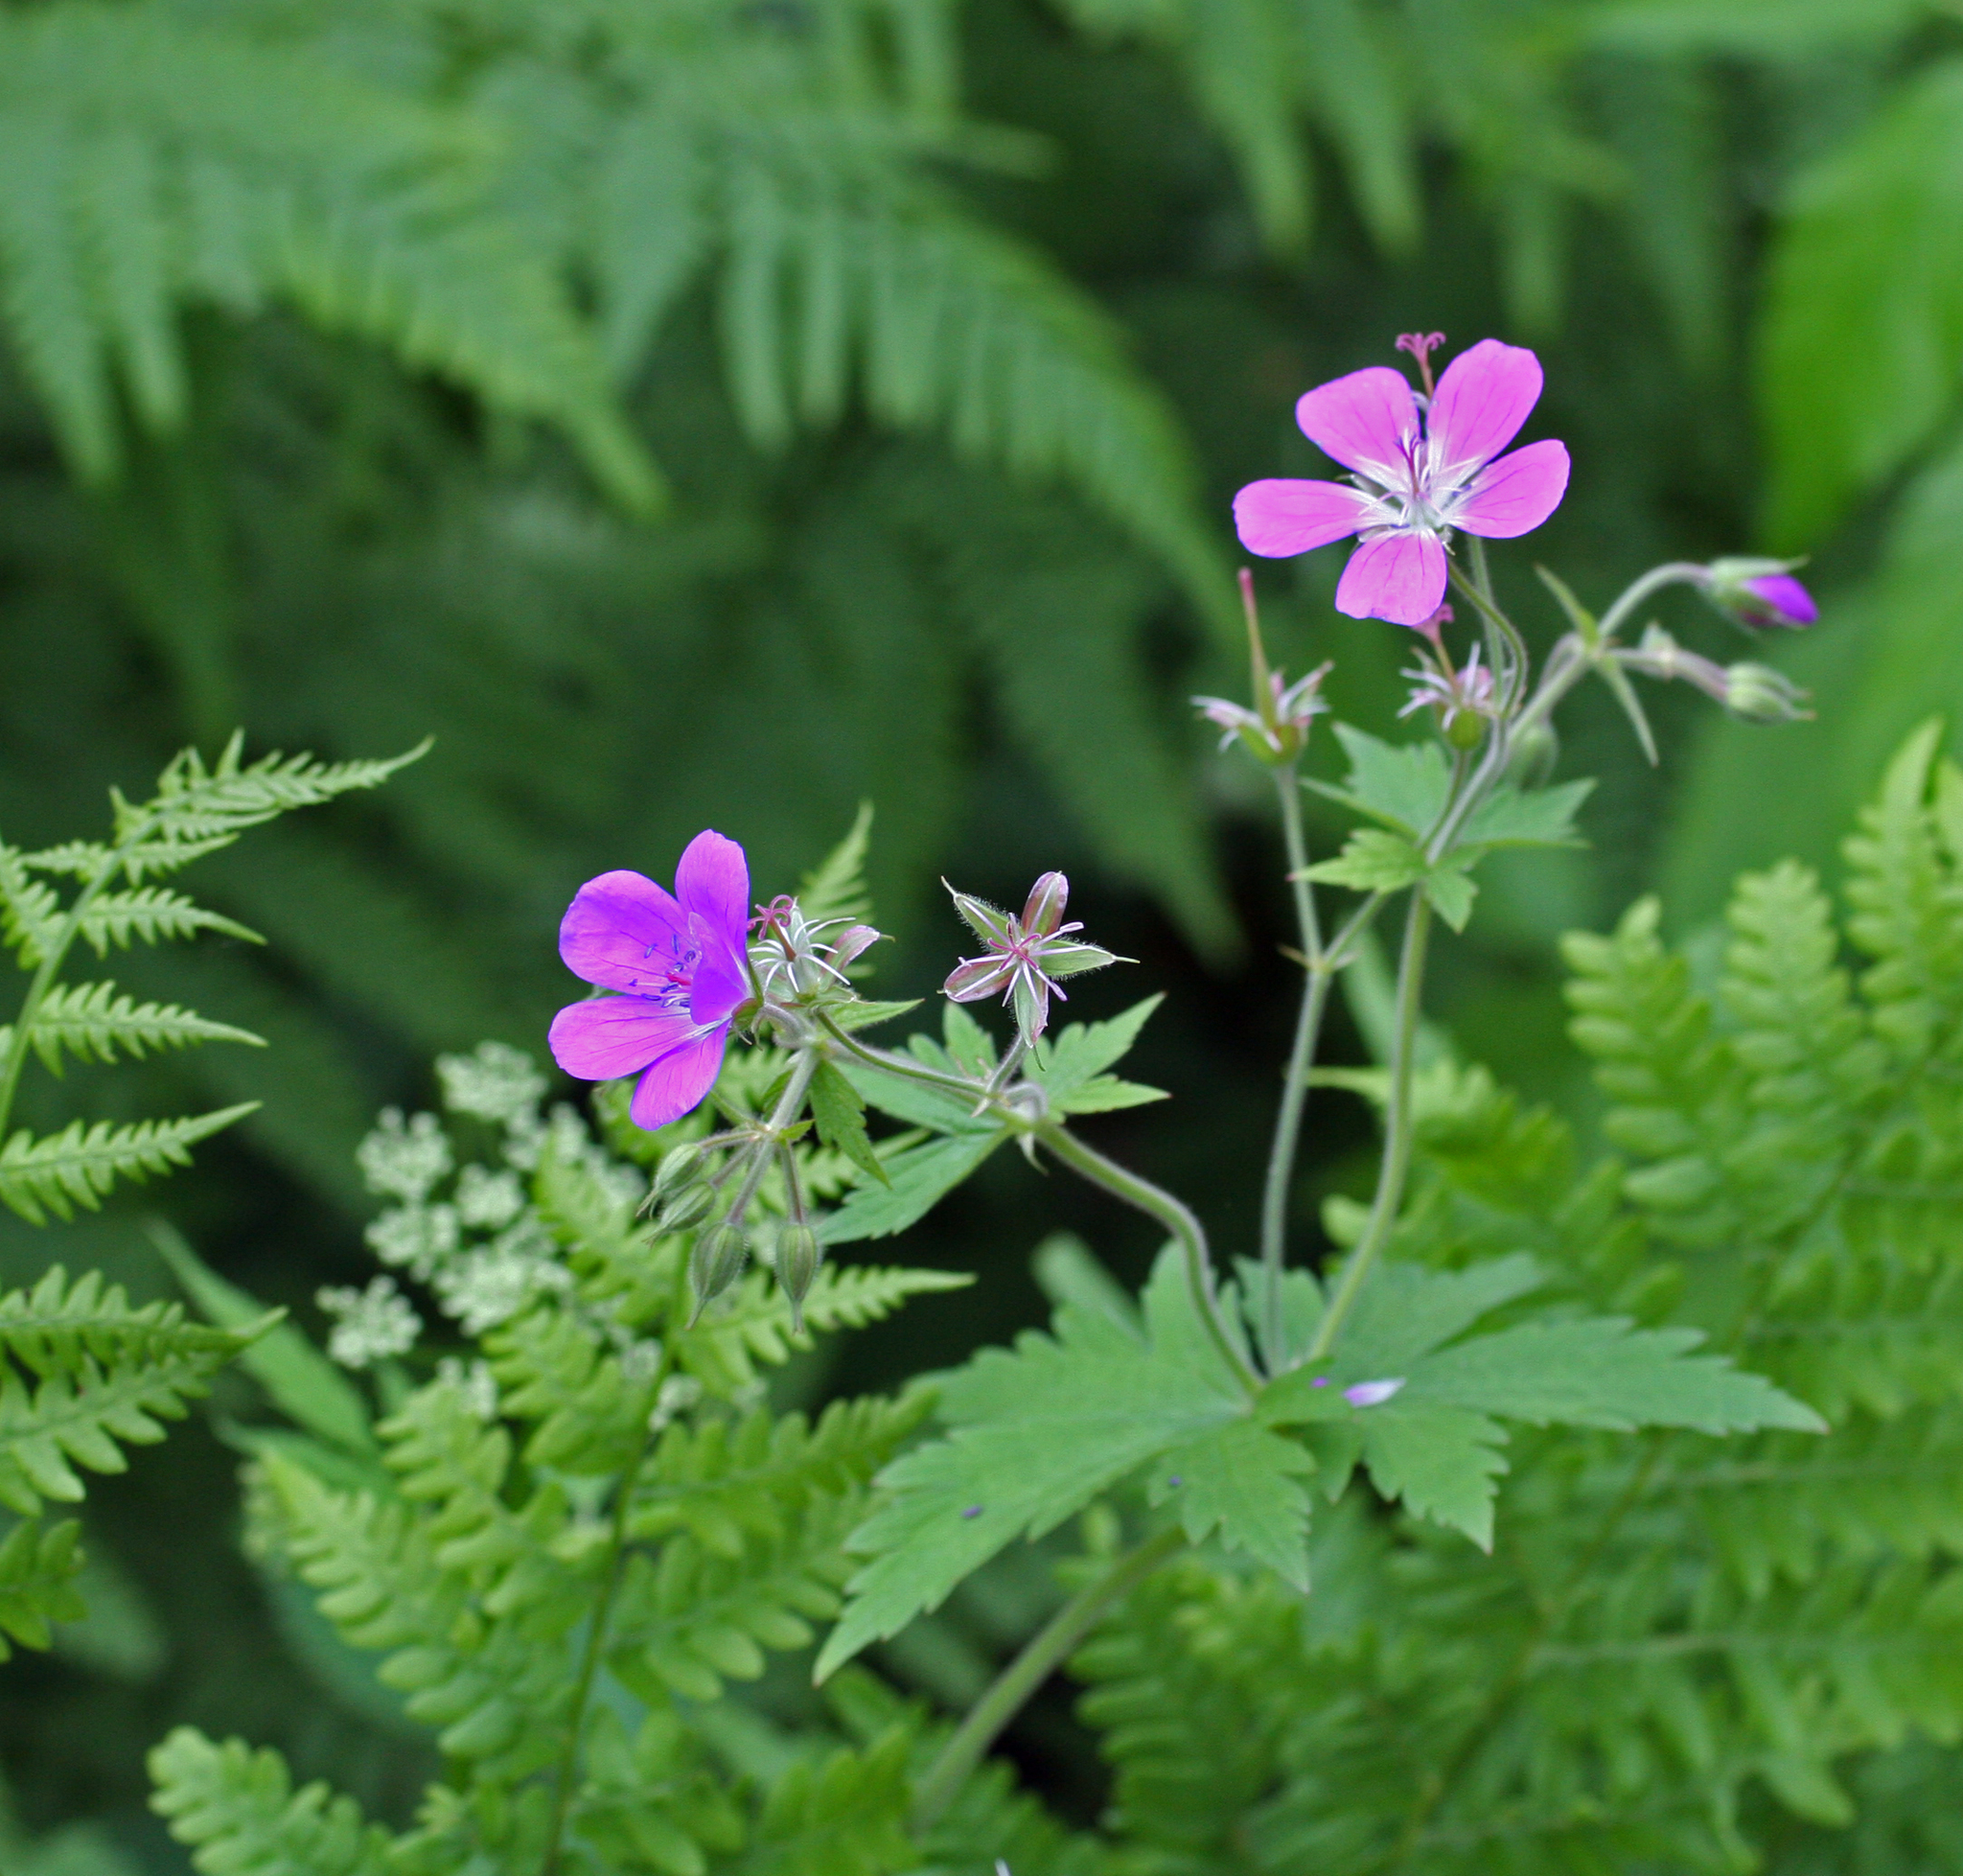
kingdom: Plantae
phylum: Tracheophyta
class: Magnoliopsida
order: Geraniales
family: Geraniaceae
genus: Geranium
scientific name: Geranium sylvaticum
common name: Wood crane's-bill
